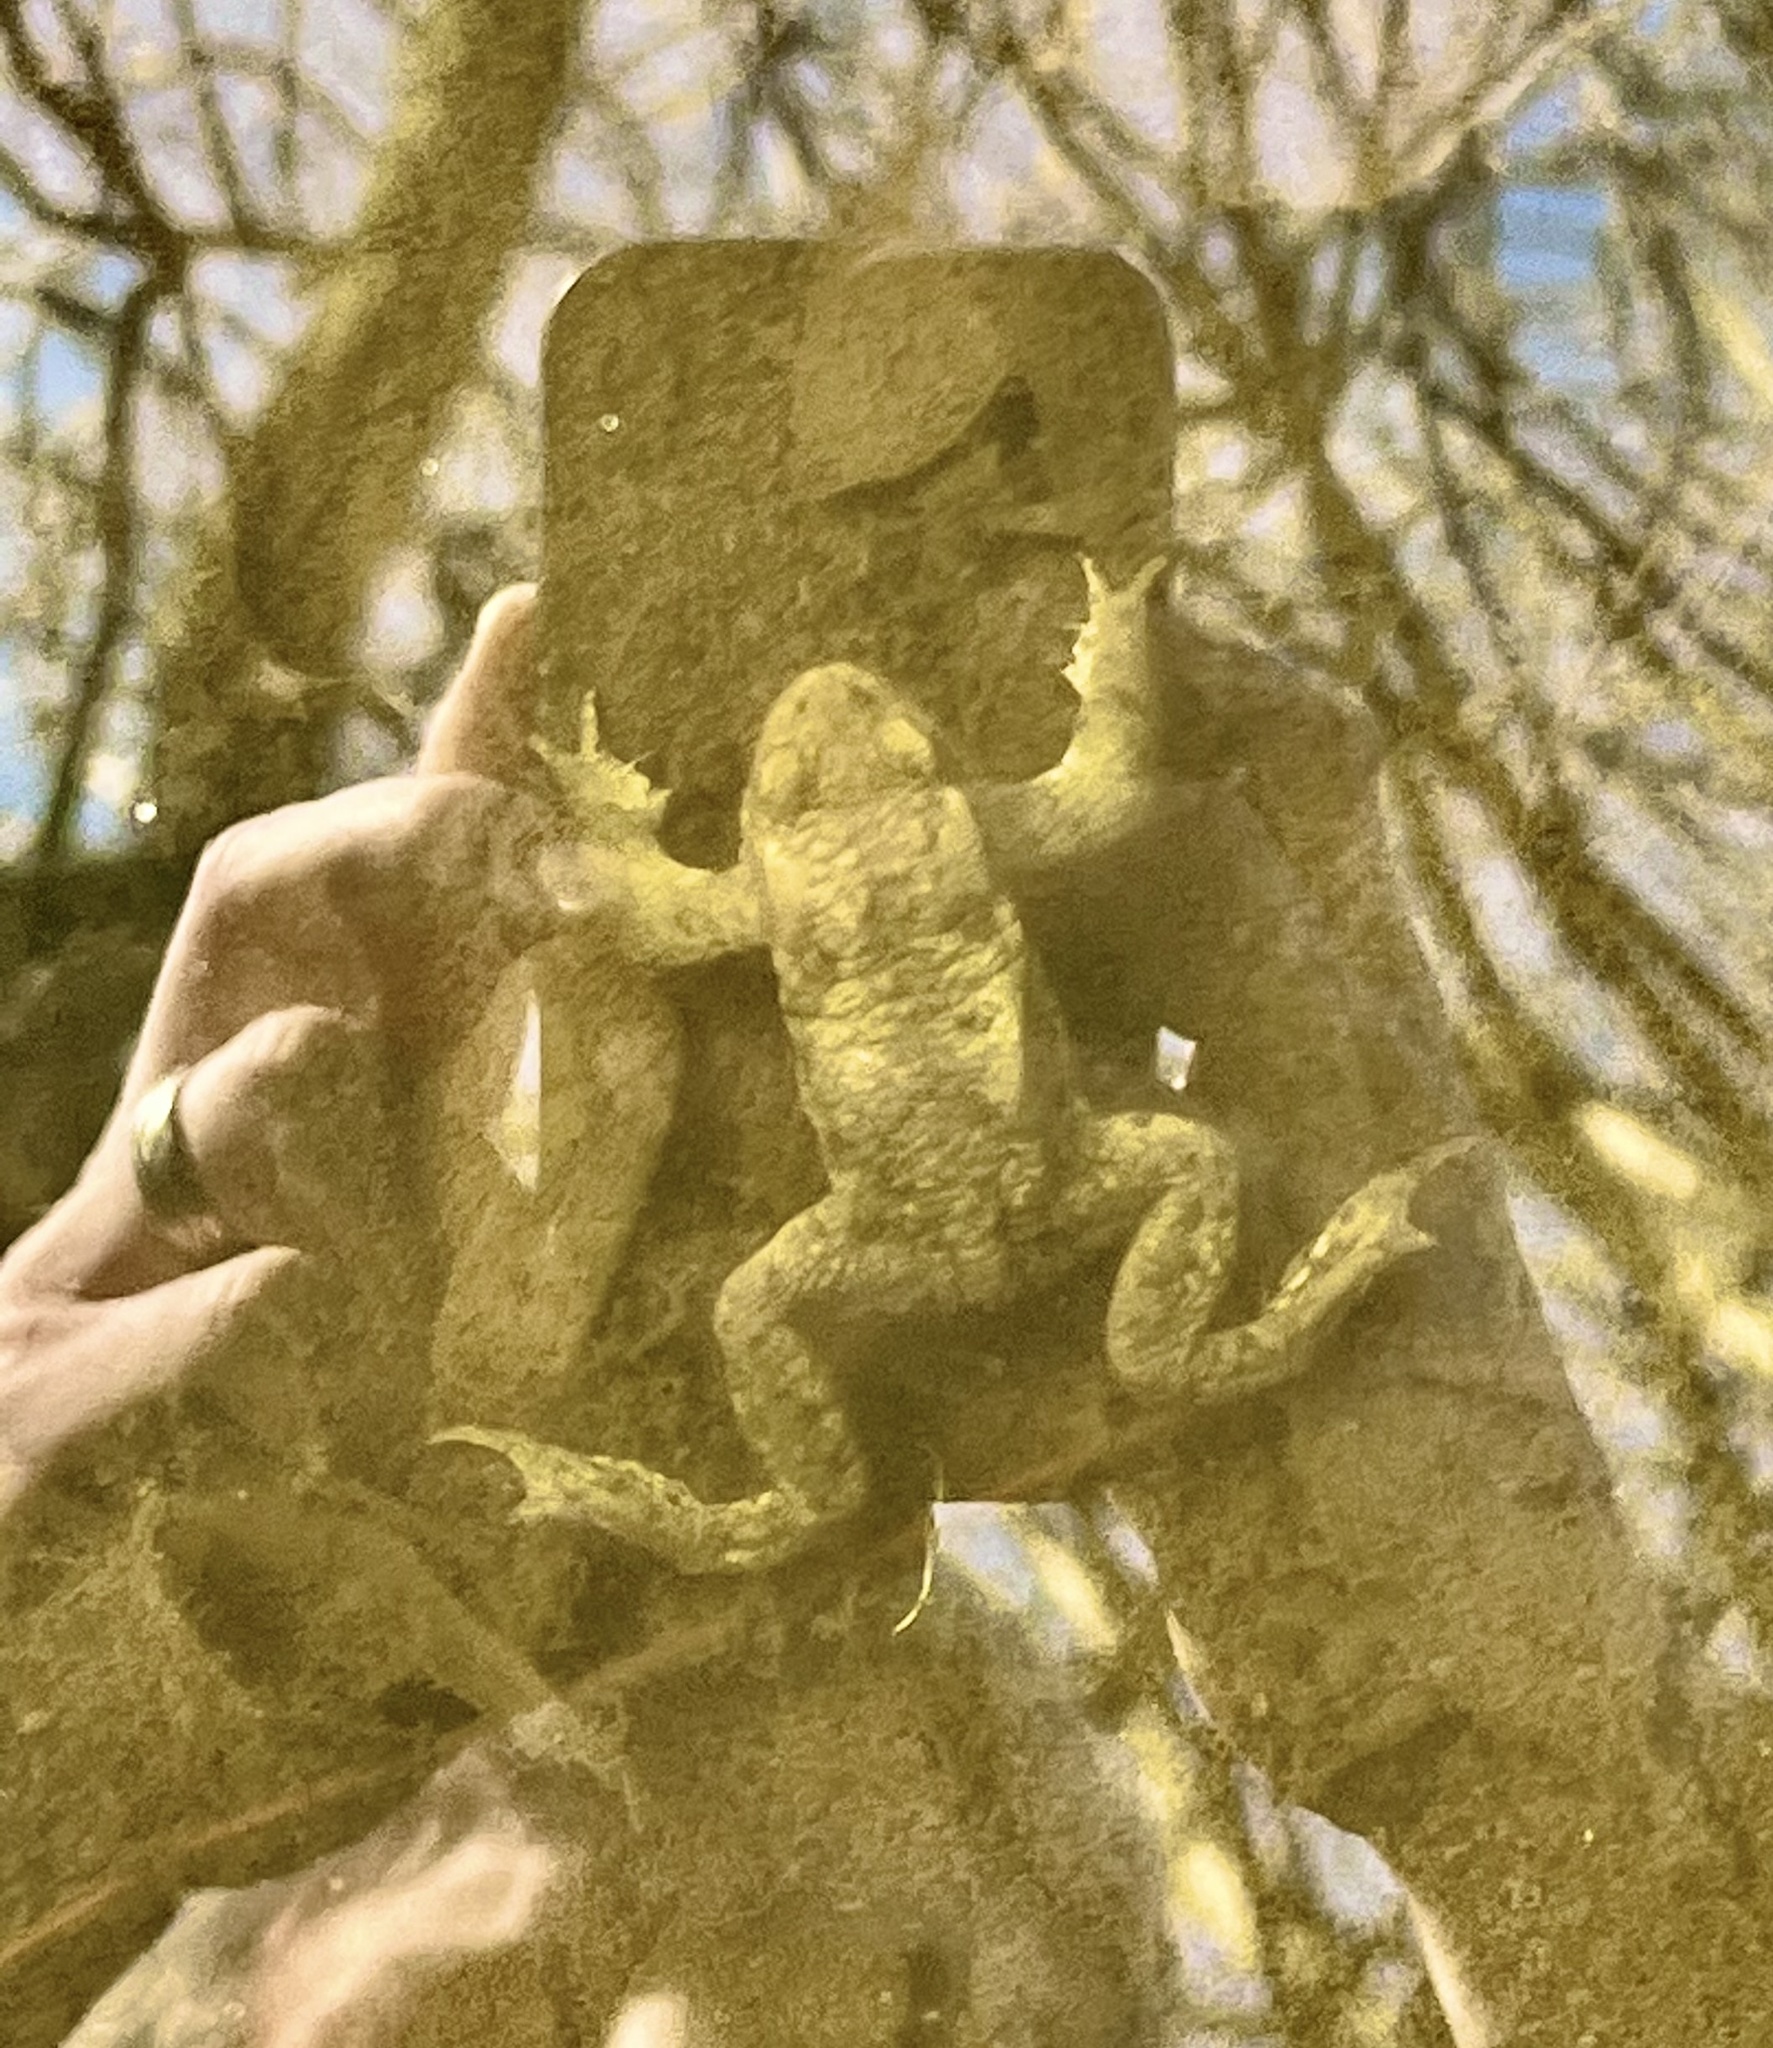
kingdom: Animalia
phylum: Chordata
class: Amphibia
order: Anura
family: Bufonidae
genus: Bufo
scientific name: Bufo bufo
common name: Common toad
